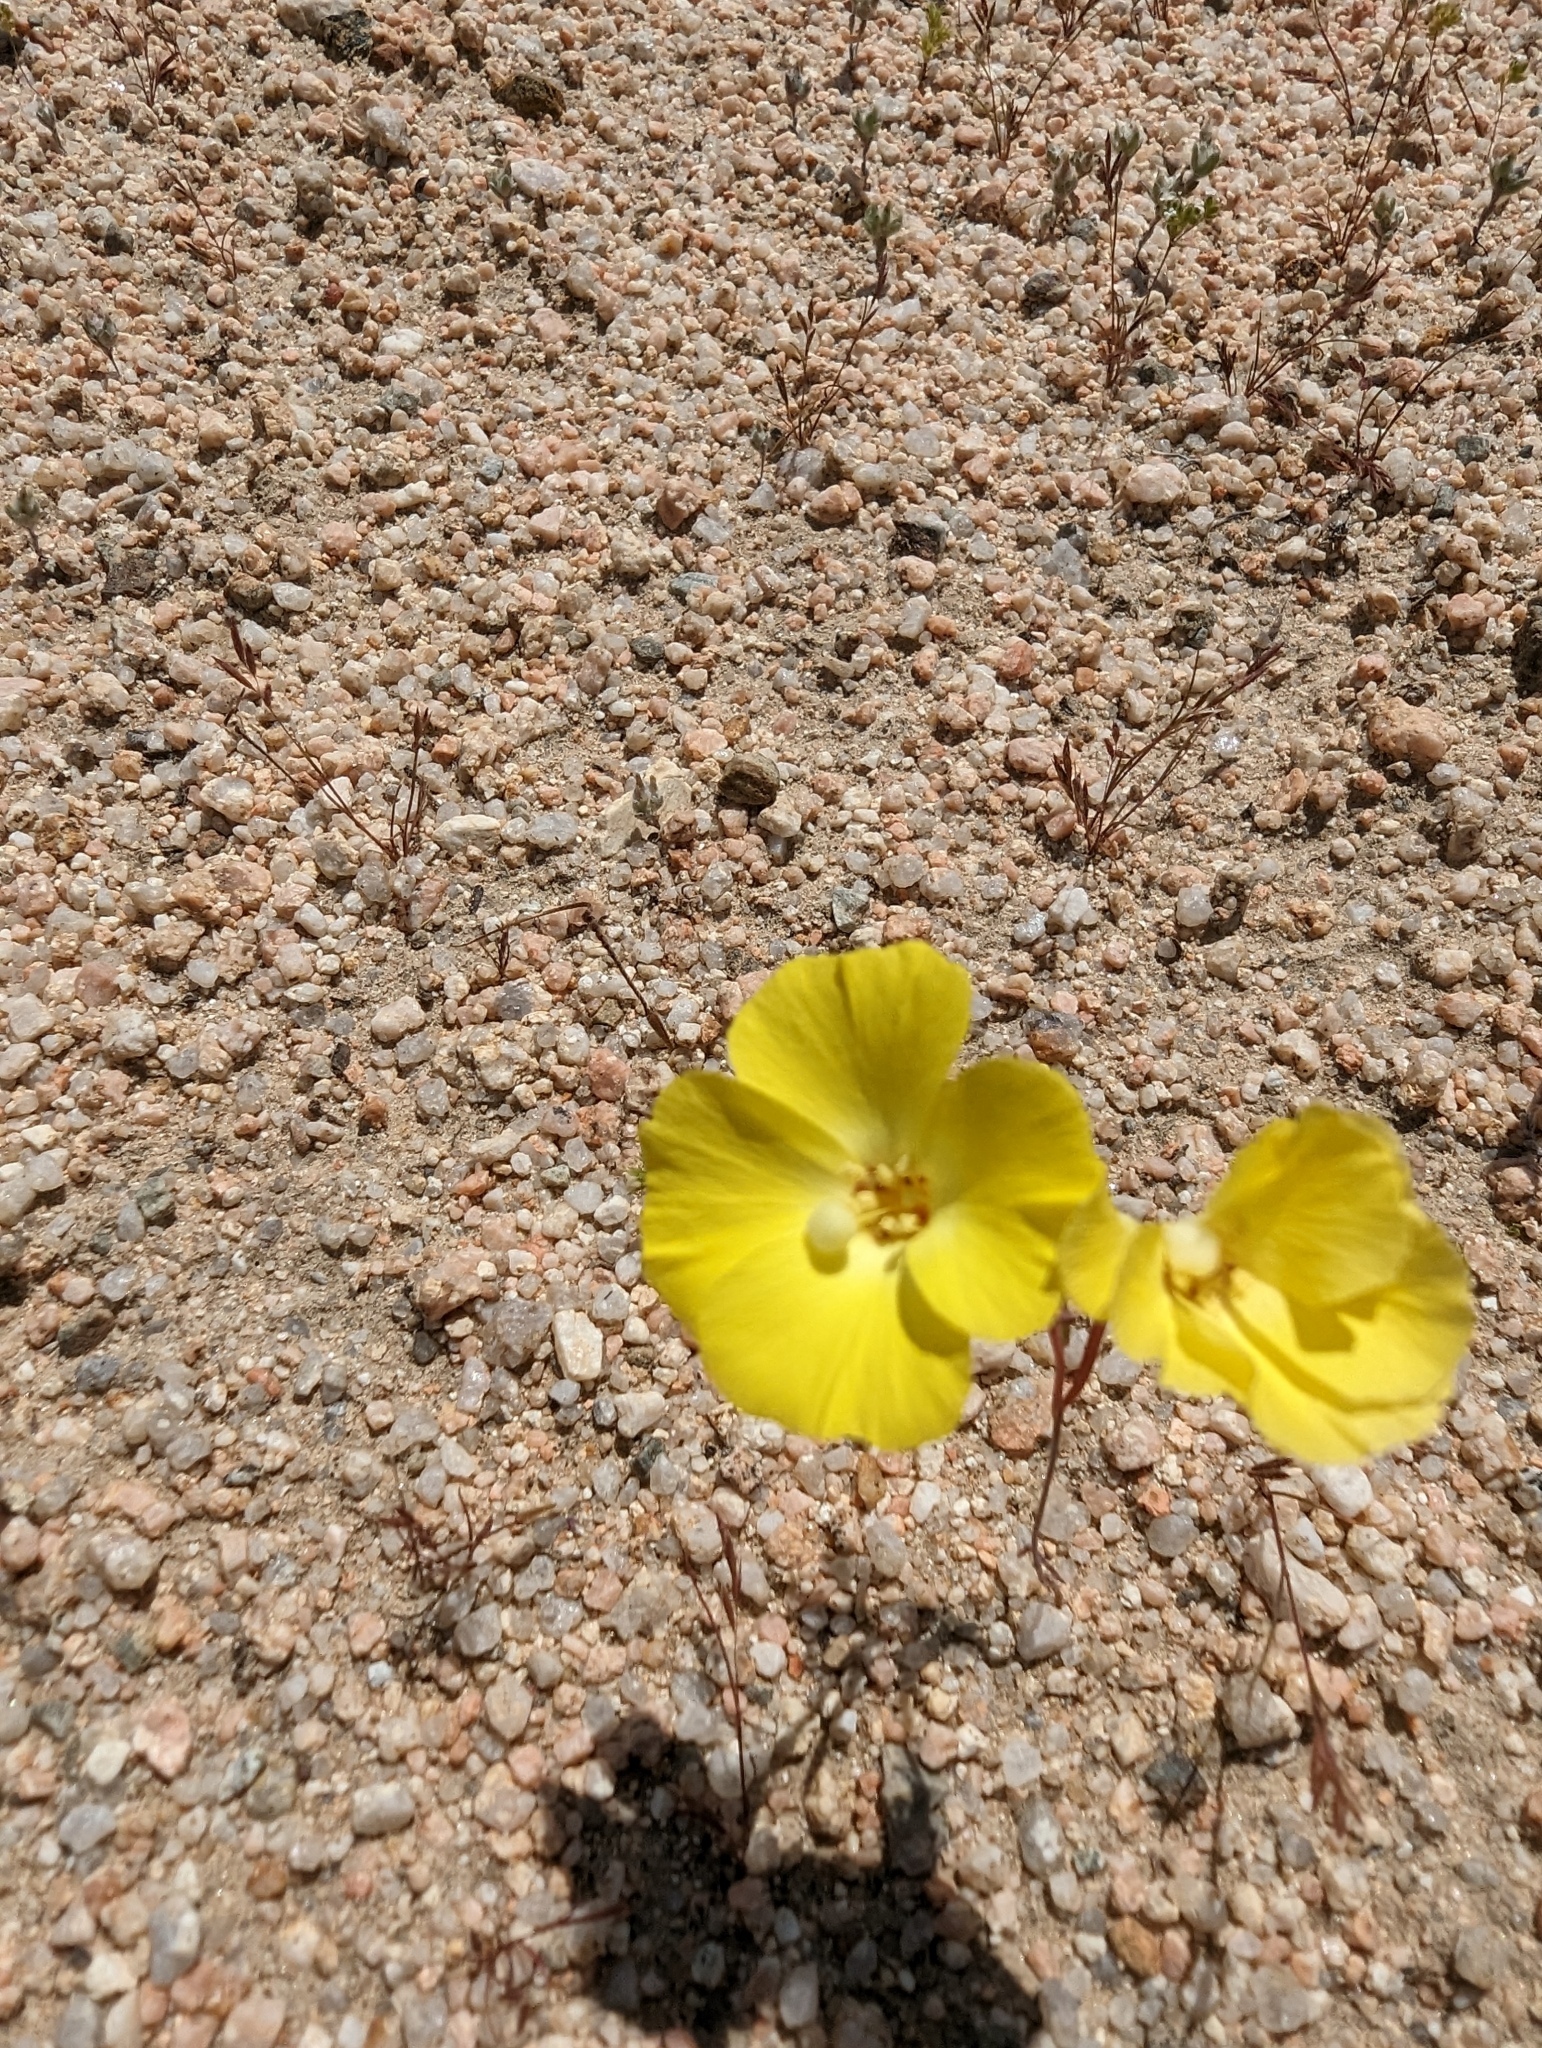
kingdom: Plantae
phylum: Tracheophyta
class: Magnoliopsida
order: Myrtales
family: Onagraceae
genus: Camissonia
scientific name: Camissonia campestris
